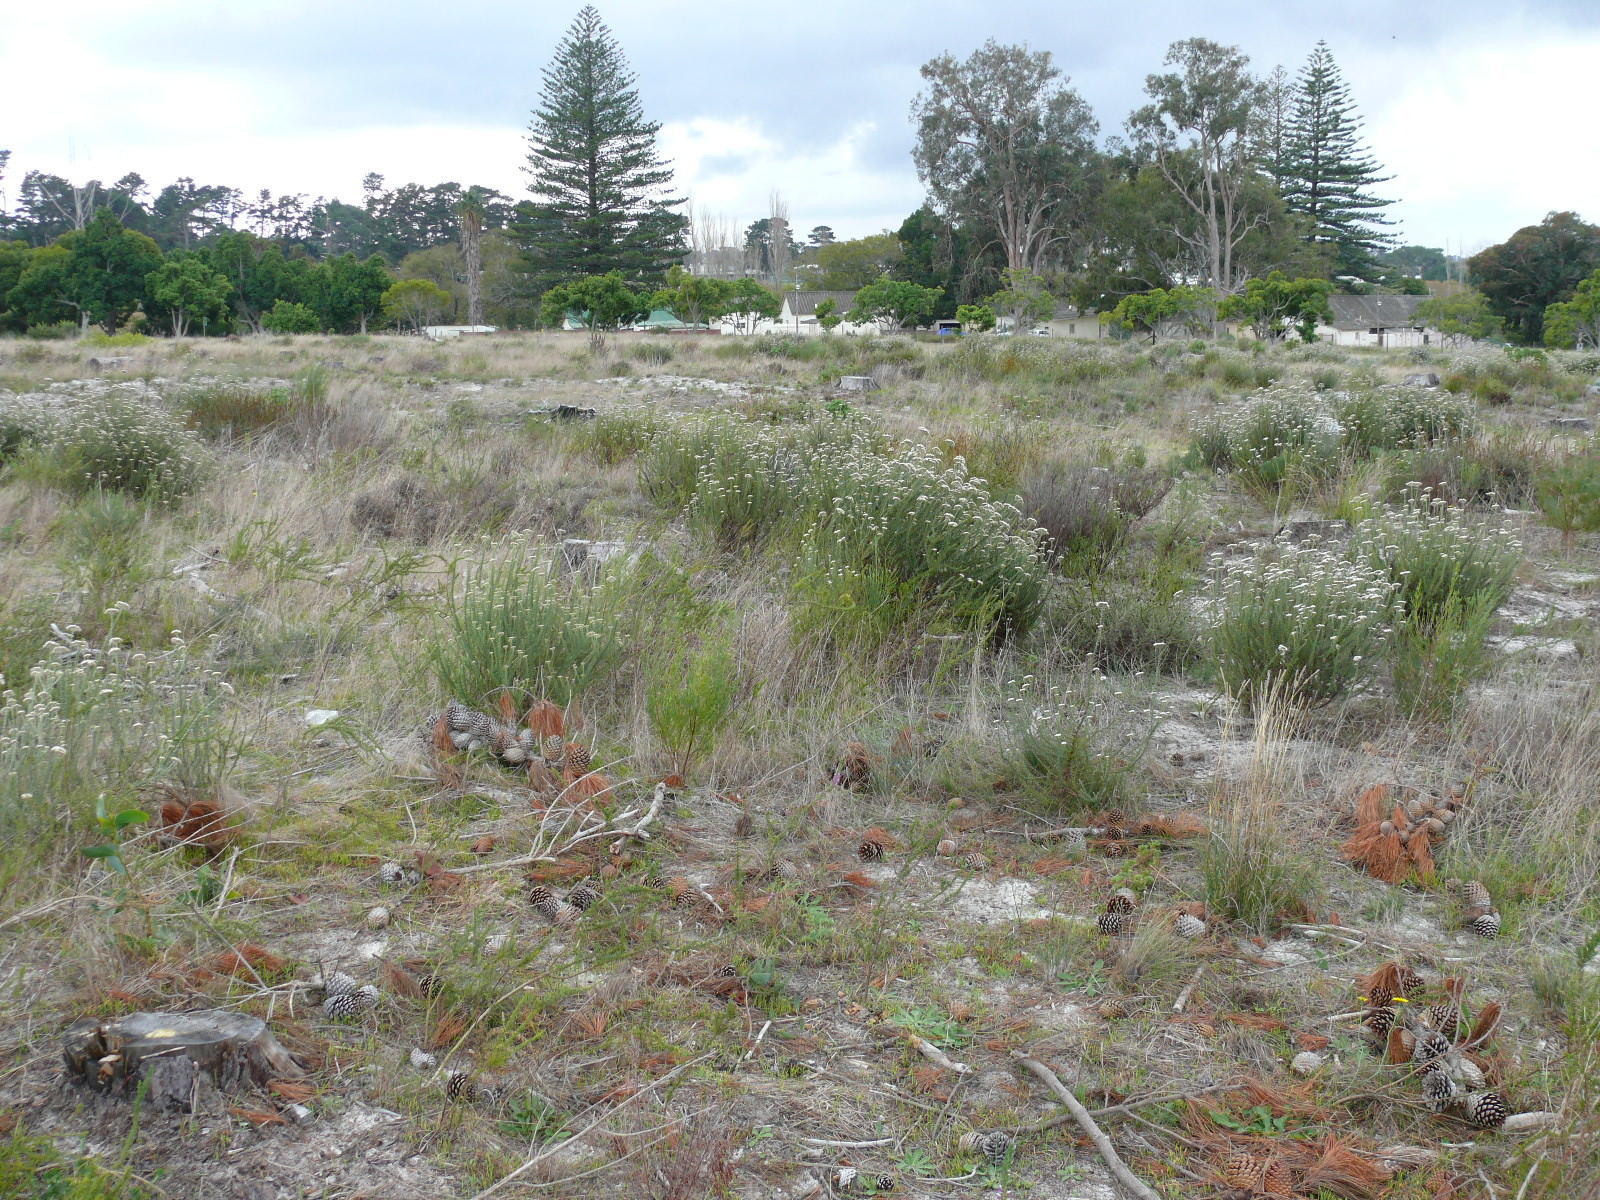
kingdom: Plantae
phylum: Tracheophyta
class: Magnoliopsida
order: Asterales
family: Asteraceae
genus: Metalasia
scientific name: Metalasia densa
